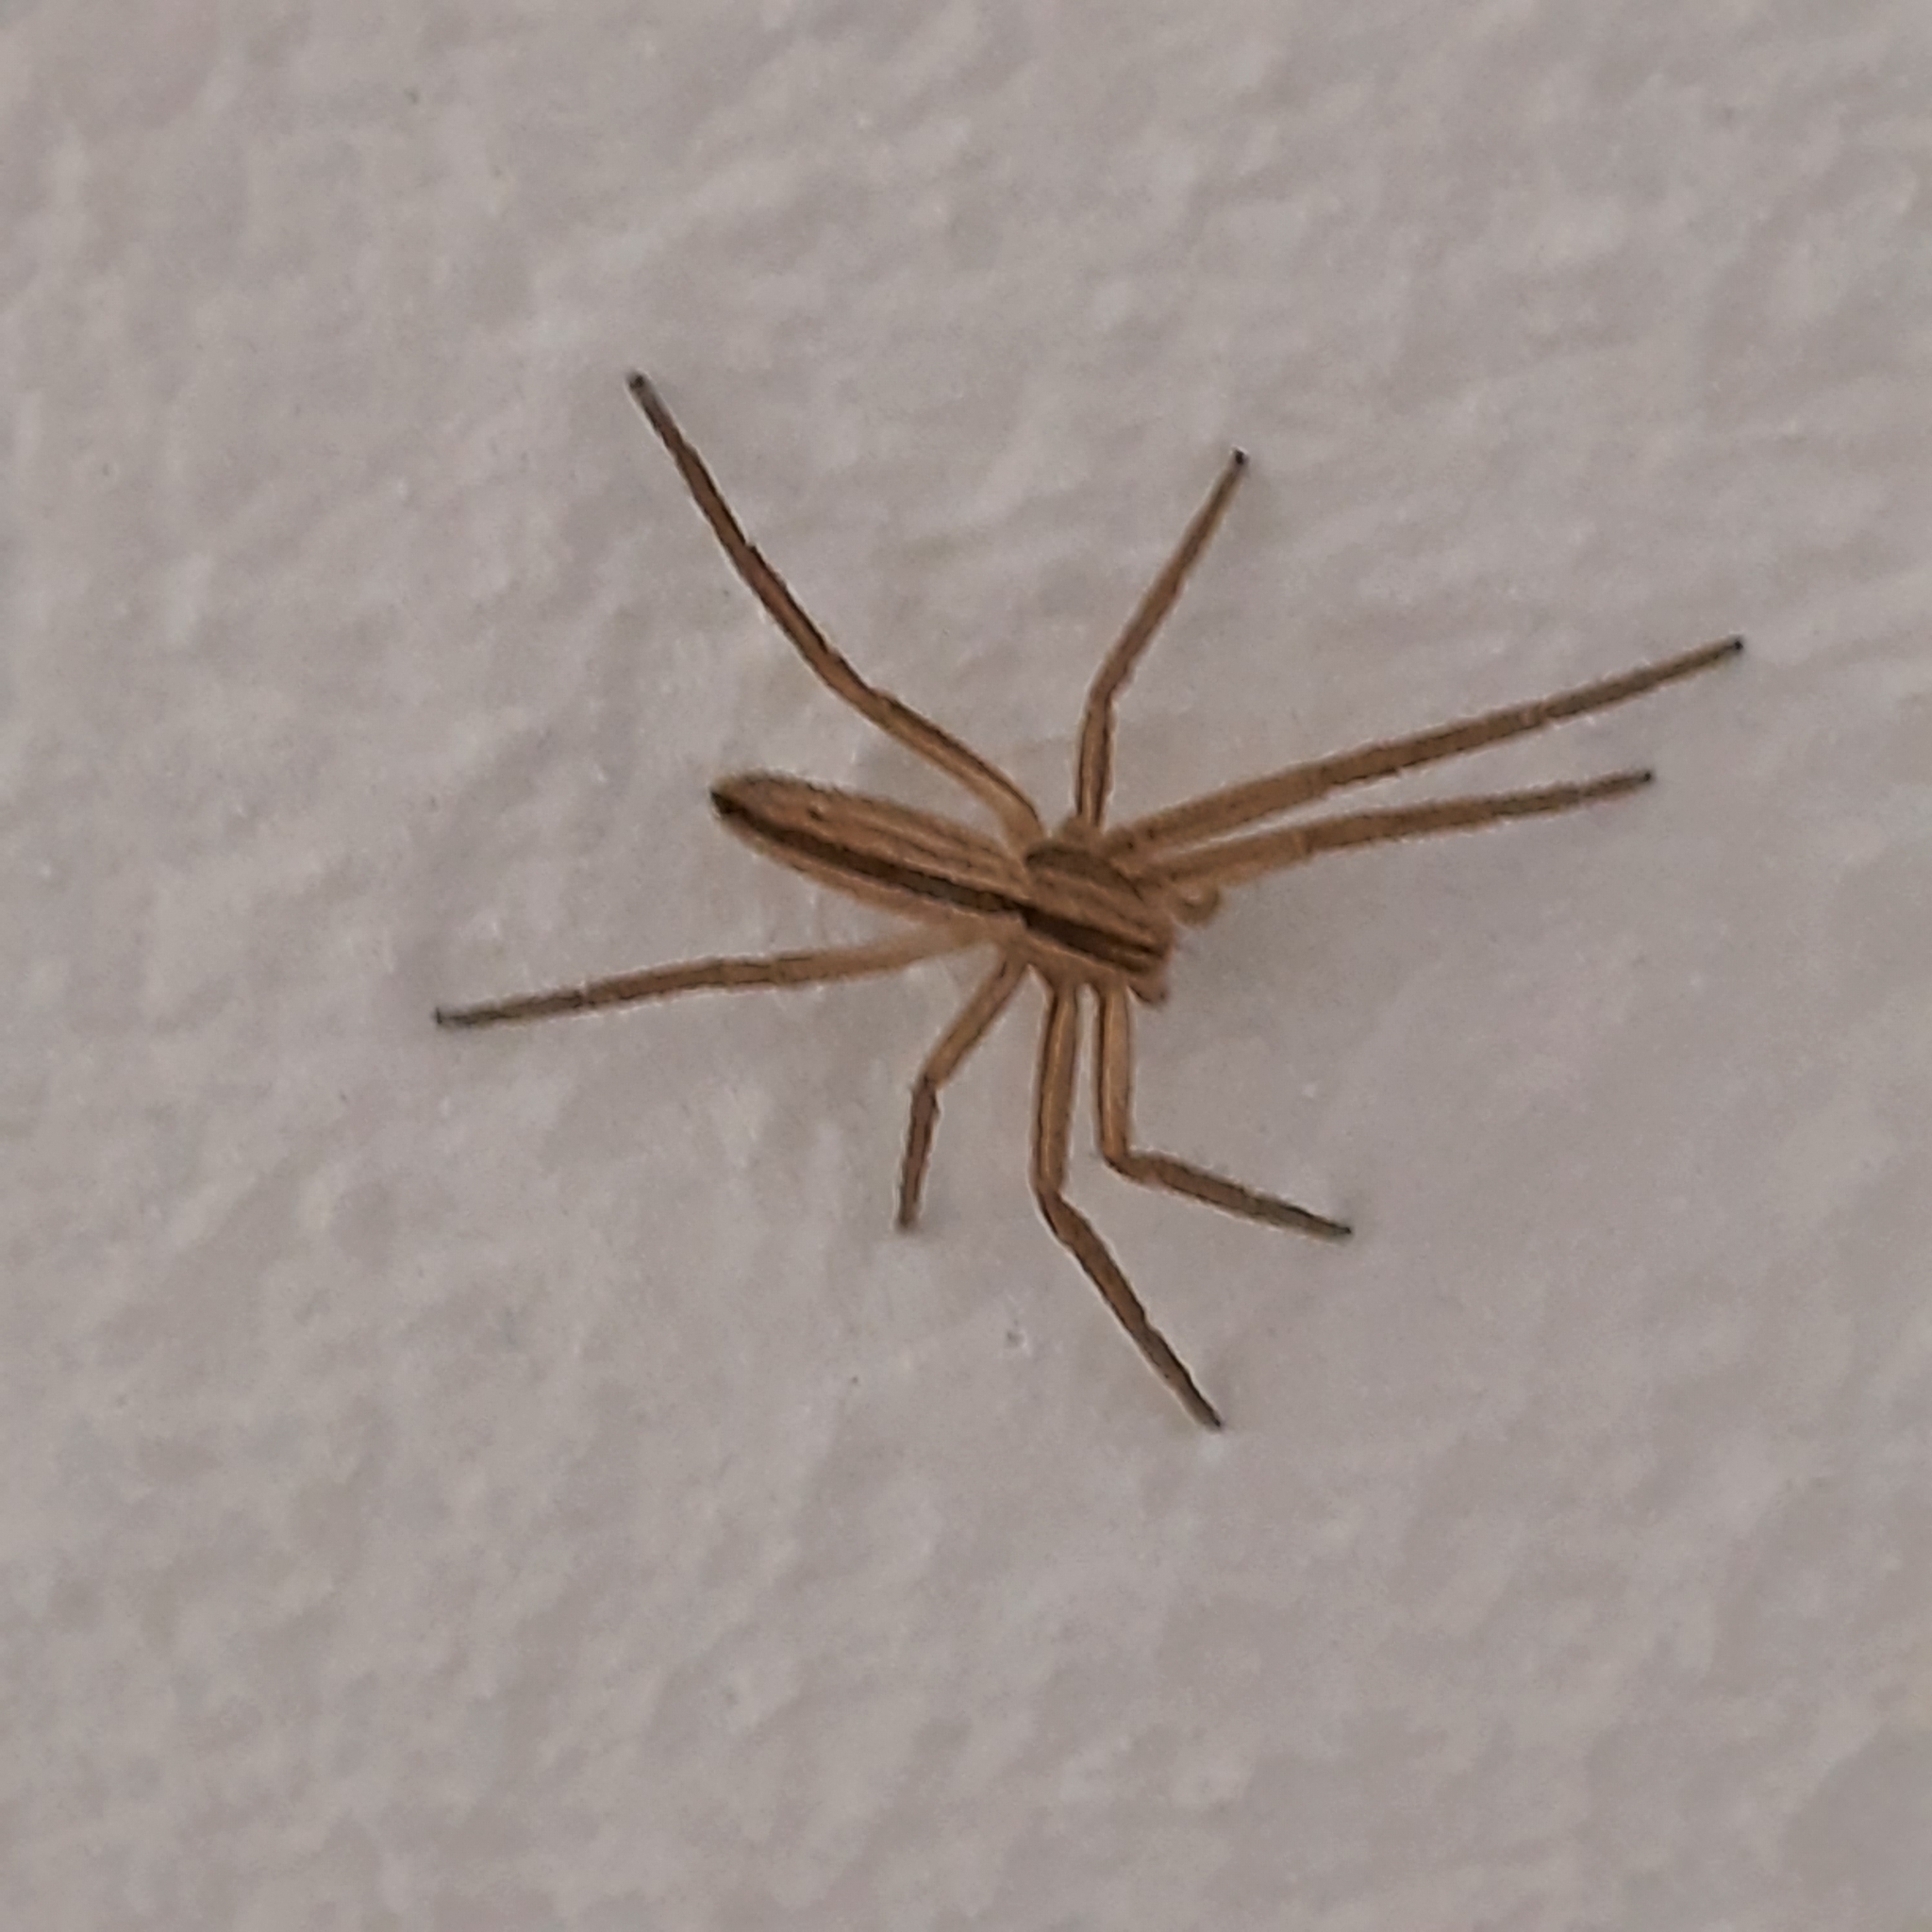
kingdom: Animalia
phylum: Arthropoda
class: Arachnida
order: Araneae
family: Philodromidae
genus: Tibellus
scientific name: Tibellus
